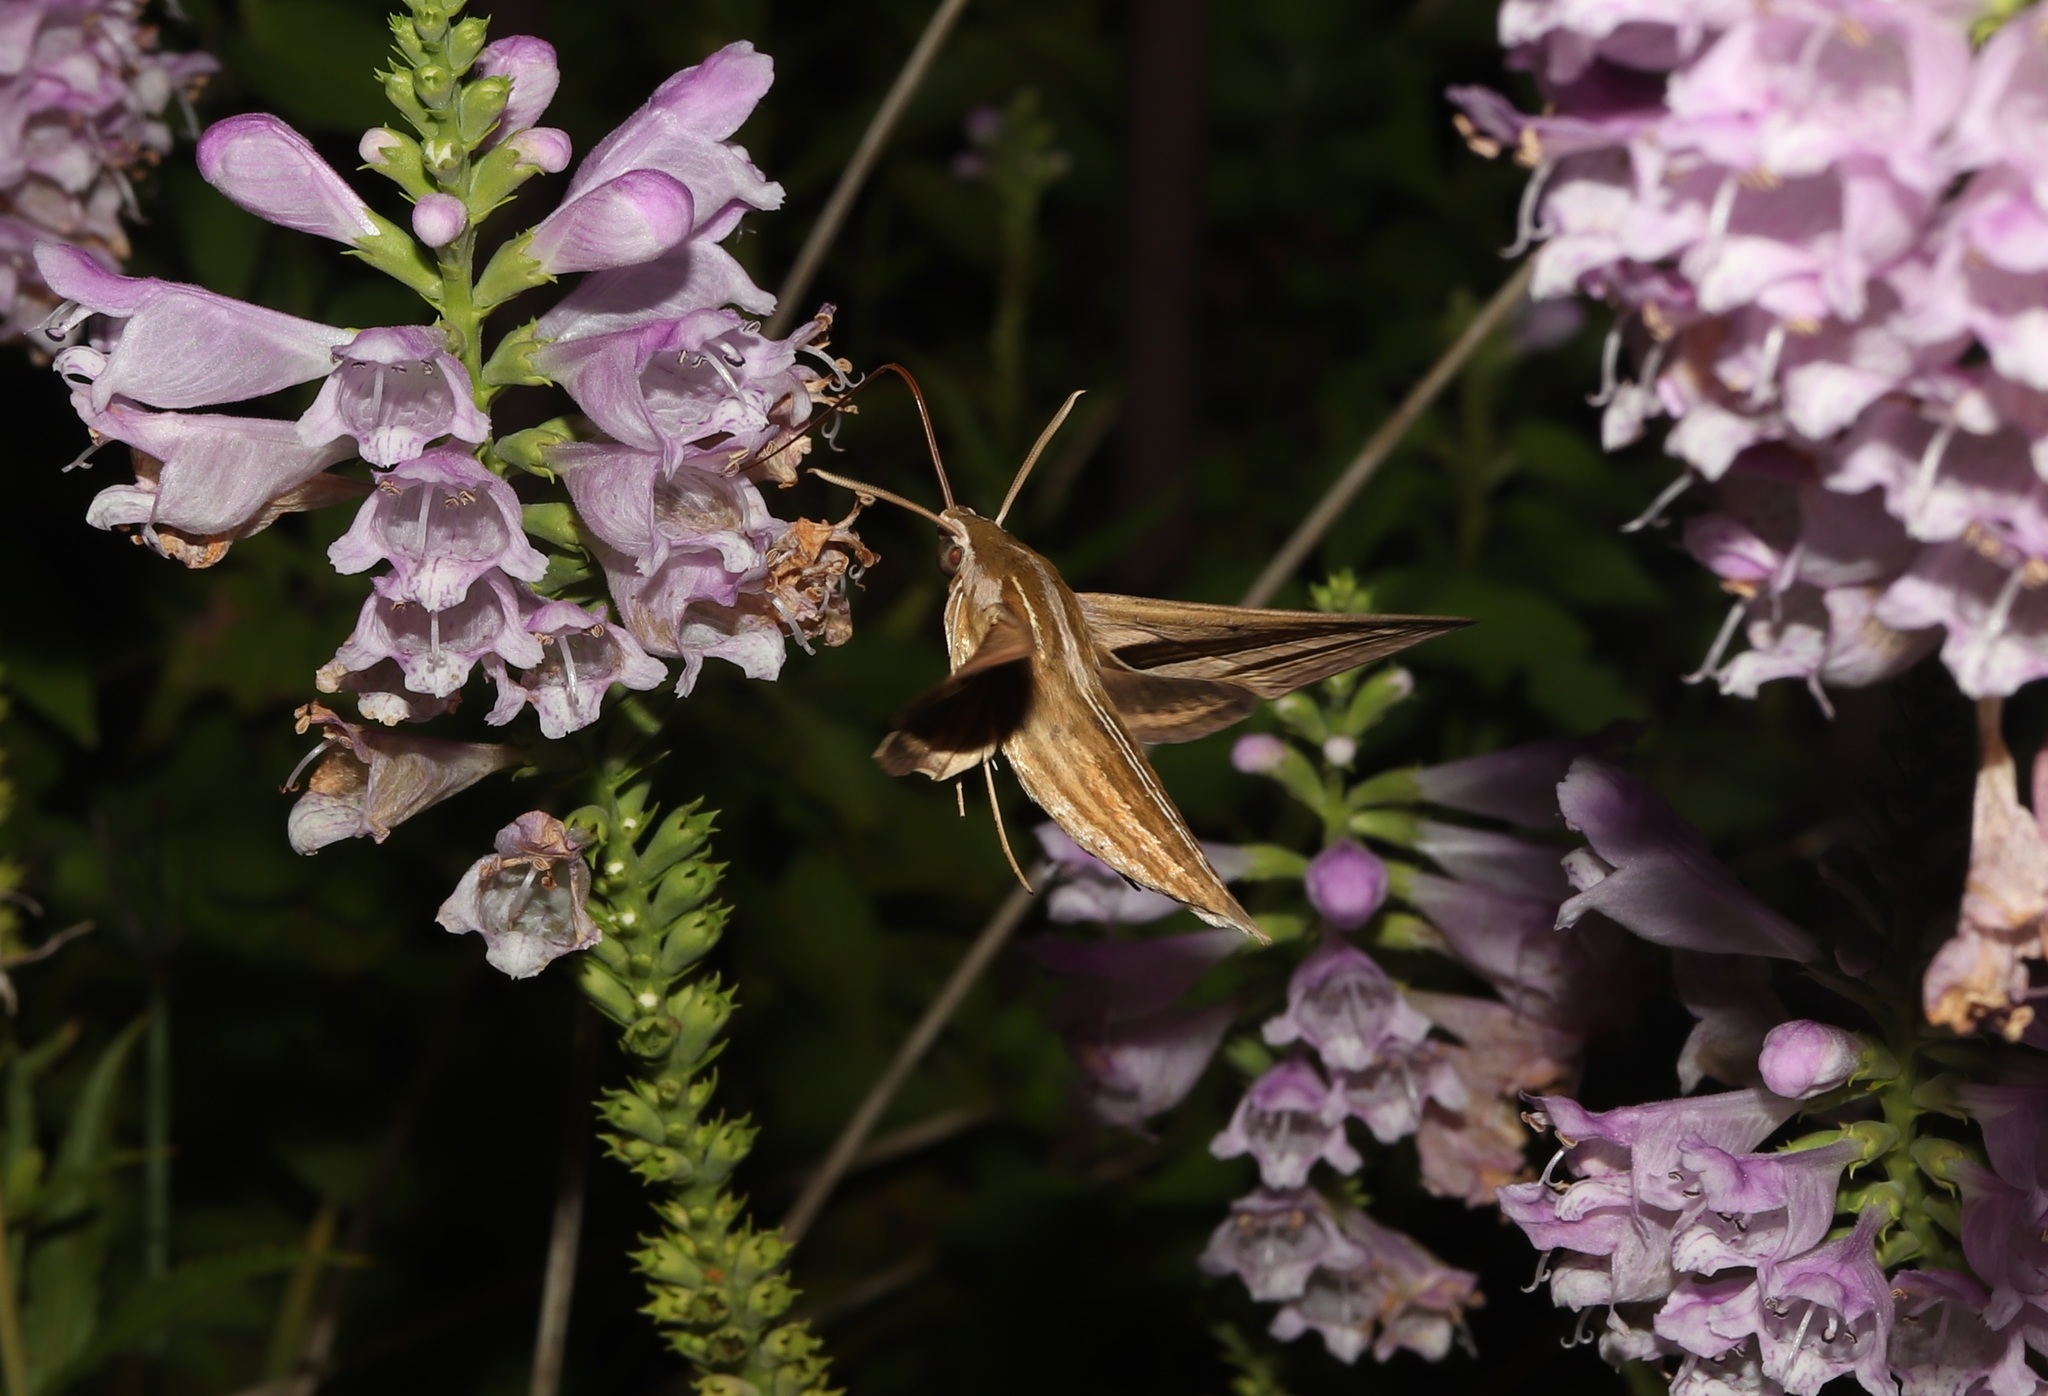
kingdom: Animalia
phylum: Arthropoda
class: Insecta
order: Lepidoptera
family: Sphingidae
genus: Theretra
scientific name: Theretra oldenlandiae
